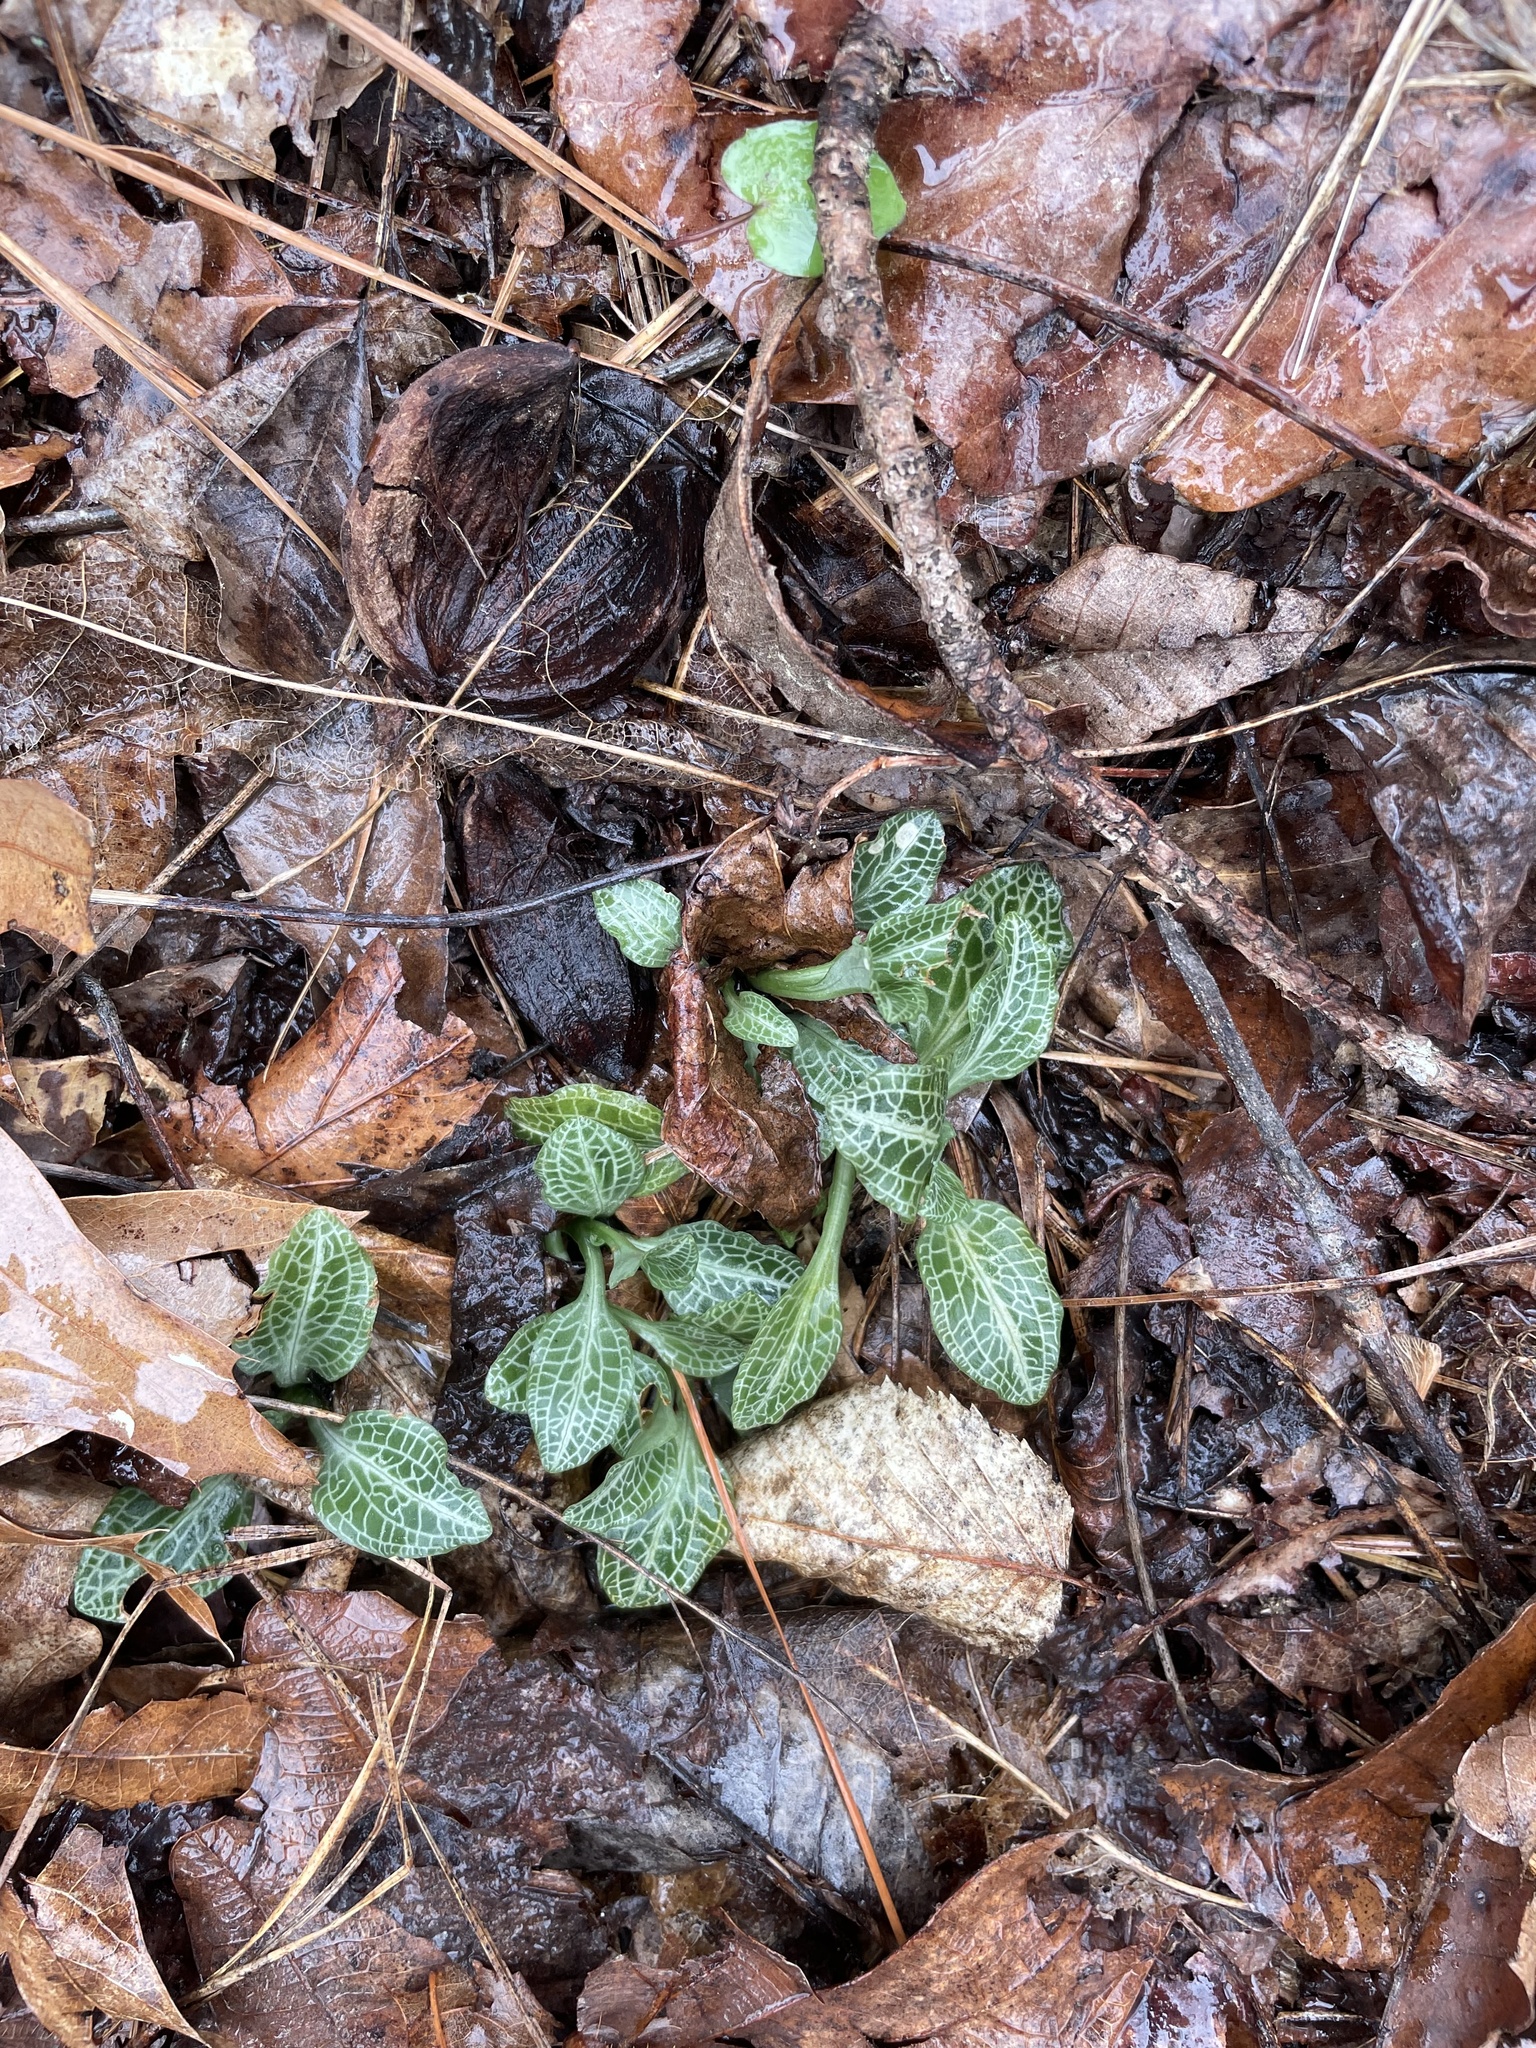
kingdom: Plantae
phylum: Tracheophyta
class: Liliopsida
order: Asparagales
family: Orchidaceae
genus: Goodyera
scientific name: Goodyera pubescens
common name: Downy rattlesnake-plantain
